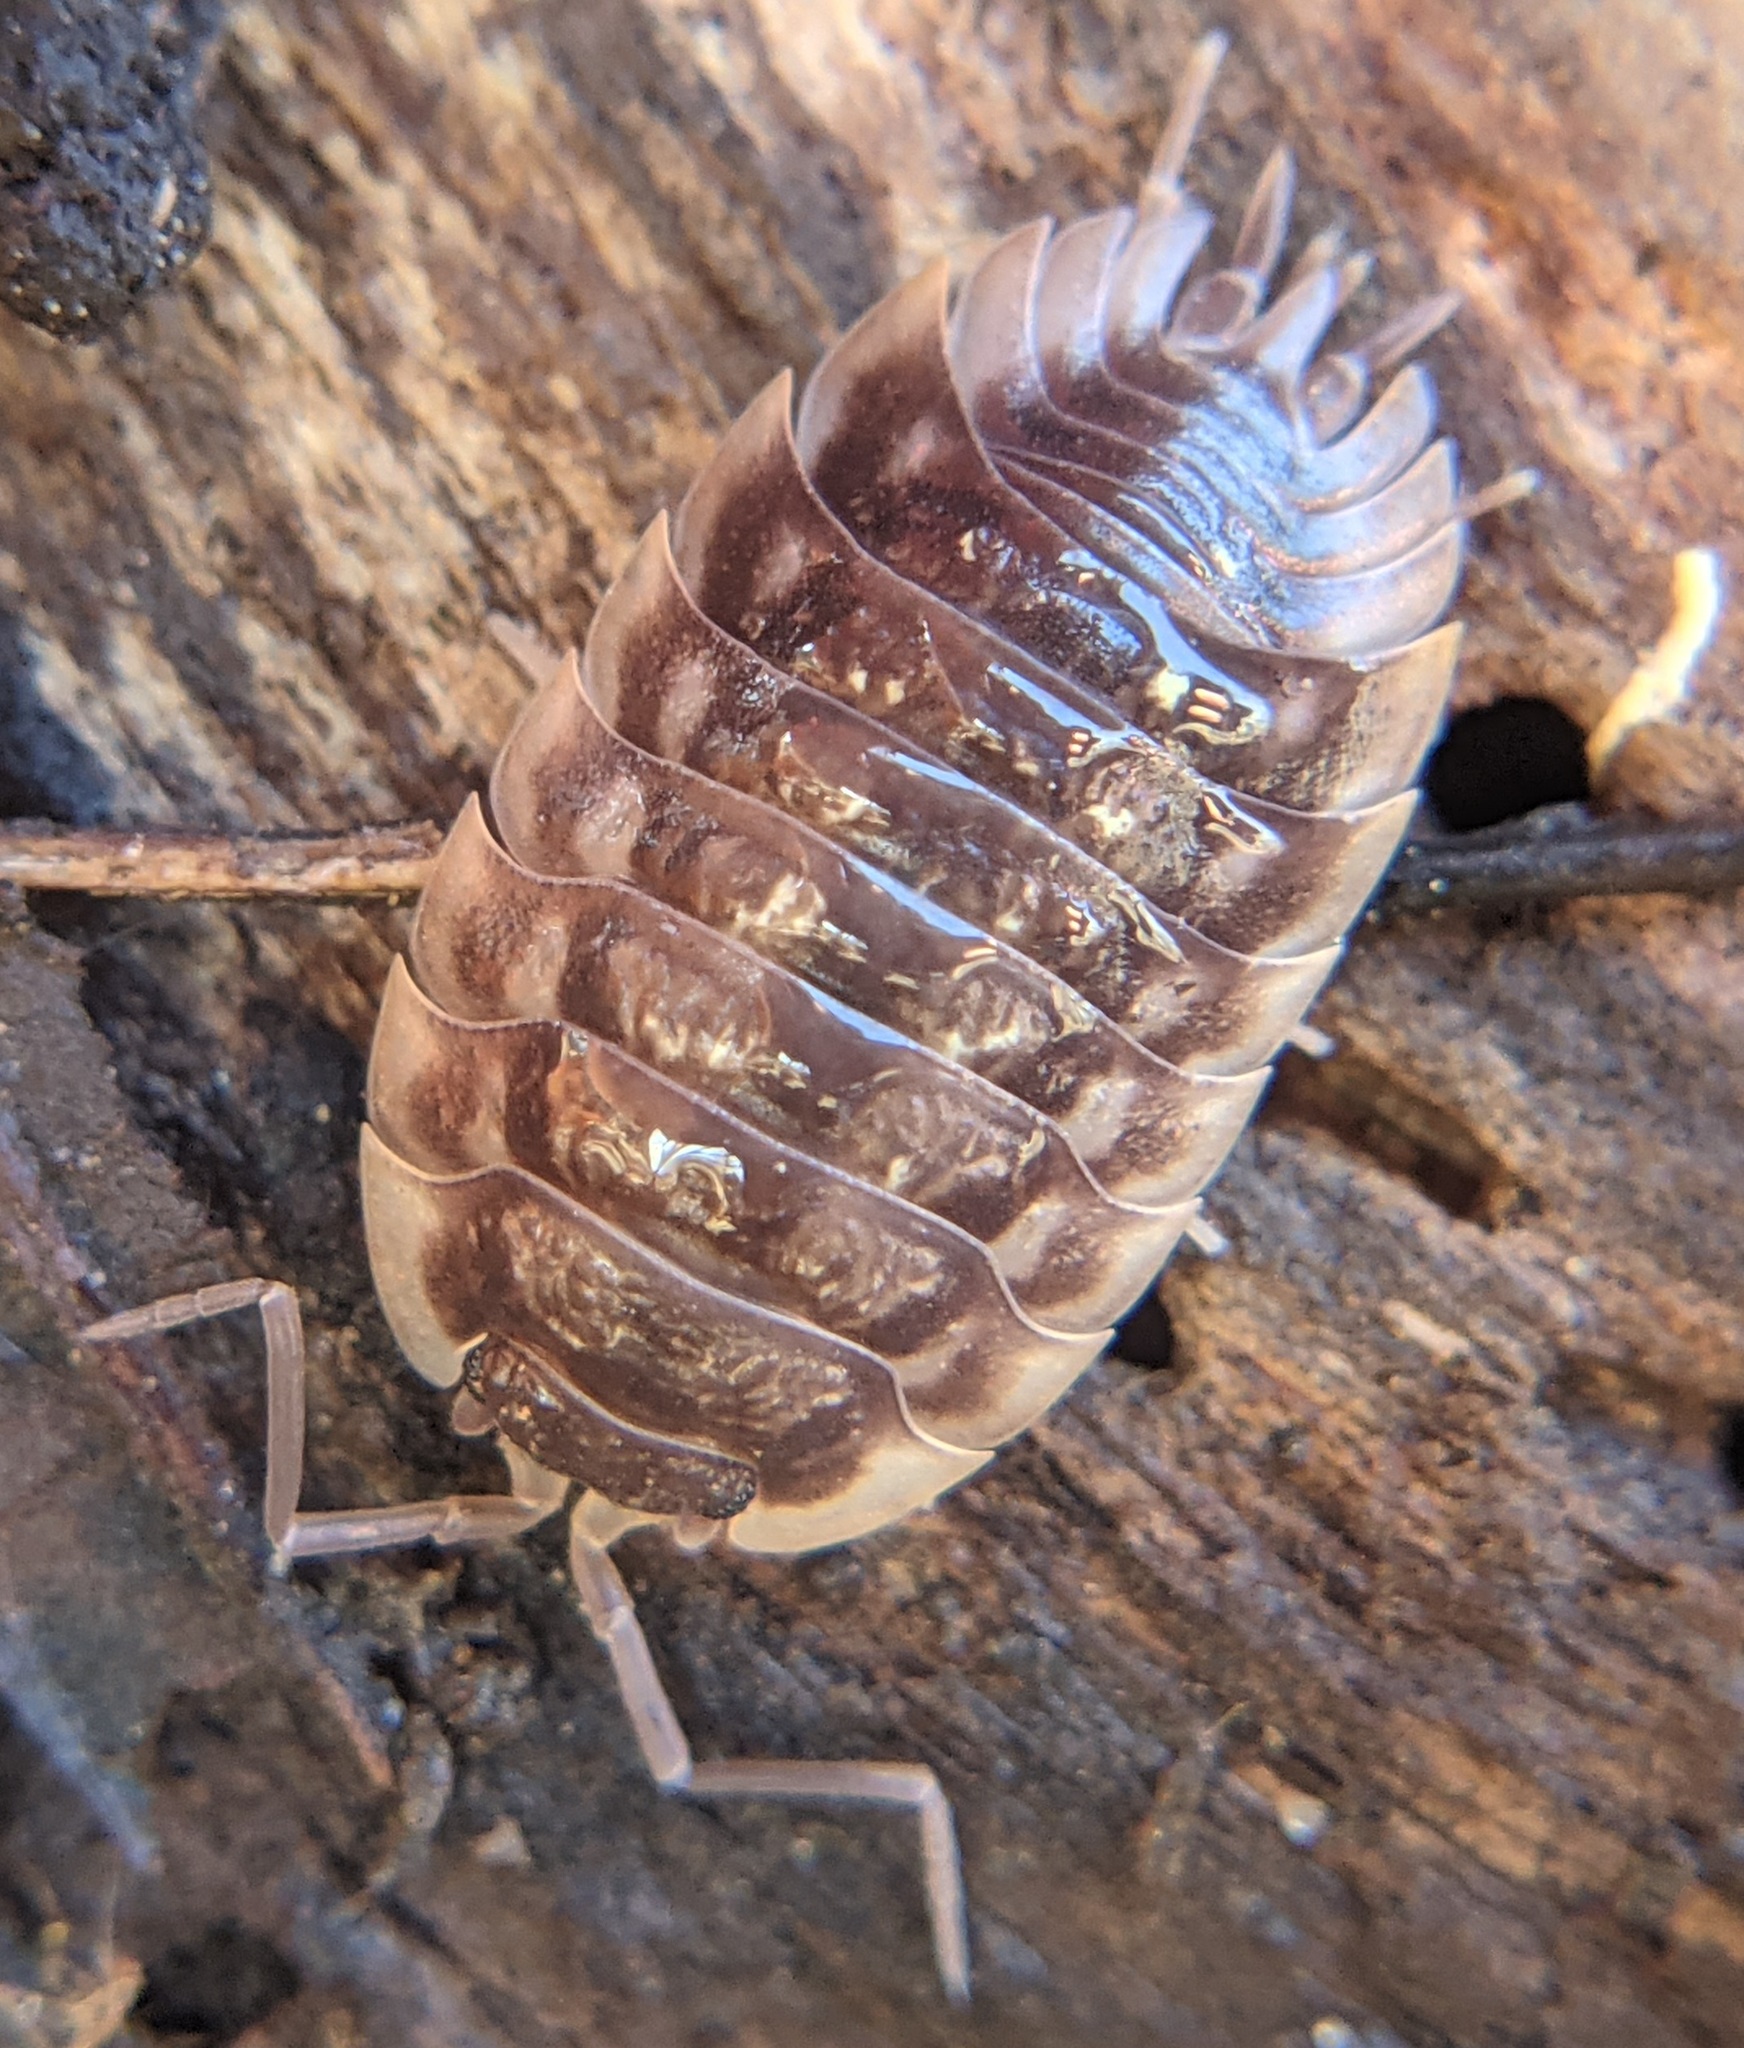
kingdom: Animalia
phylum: Arthropoda
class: Malacostraca
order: Isopoda
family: Oniscidae
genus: Oniscus
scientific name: Oniscus asellus
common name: Common shiny woodlouse
